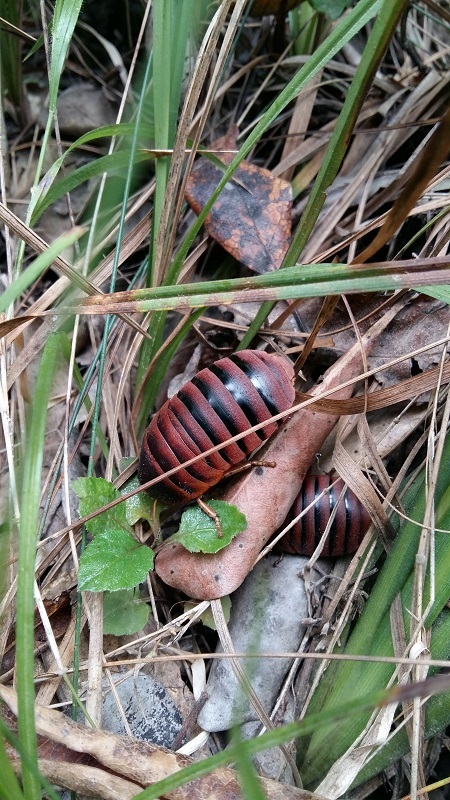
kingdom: Animalia
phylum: Arthropoda
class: Insecta
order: Blattodea
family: Blaberidae
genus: Aptera
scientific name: Aptera fusca
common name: Cape mountain cockroach
